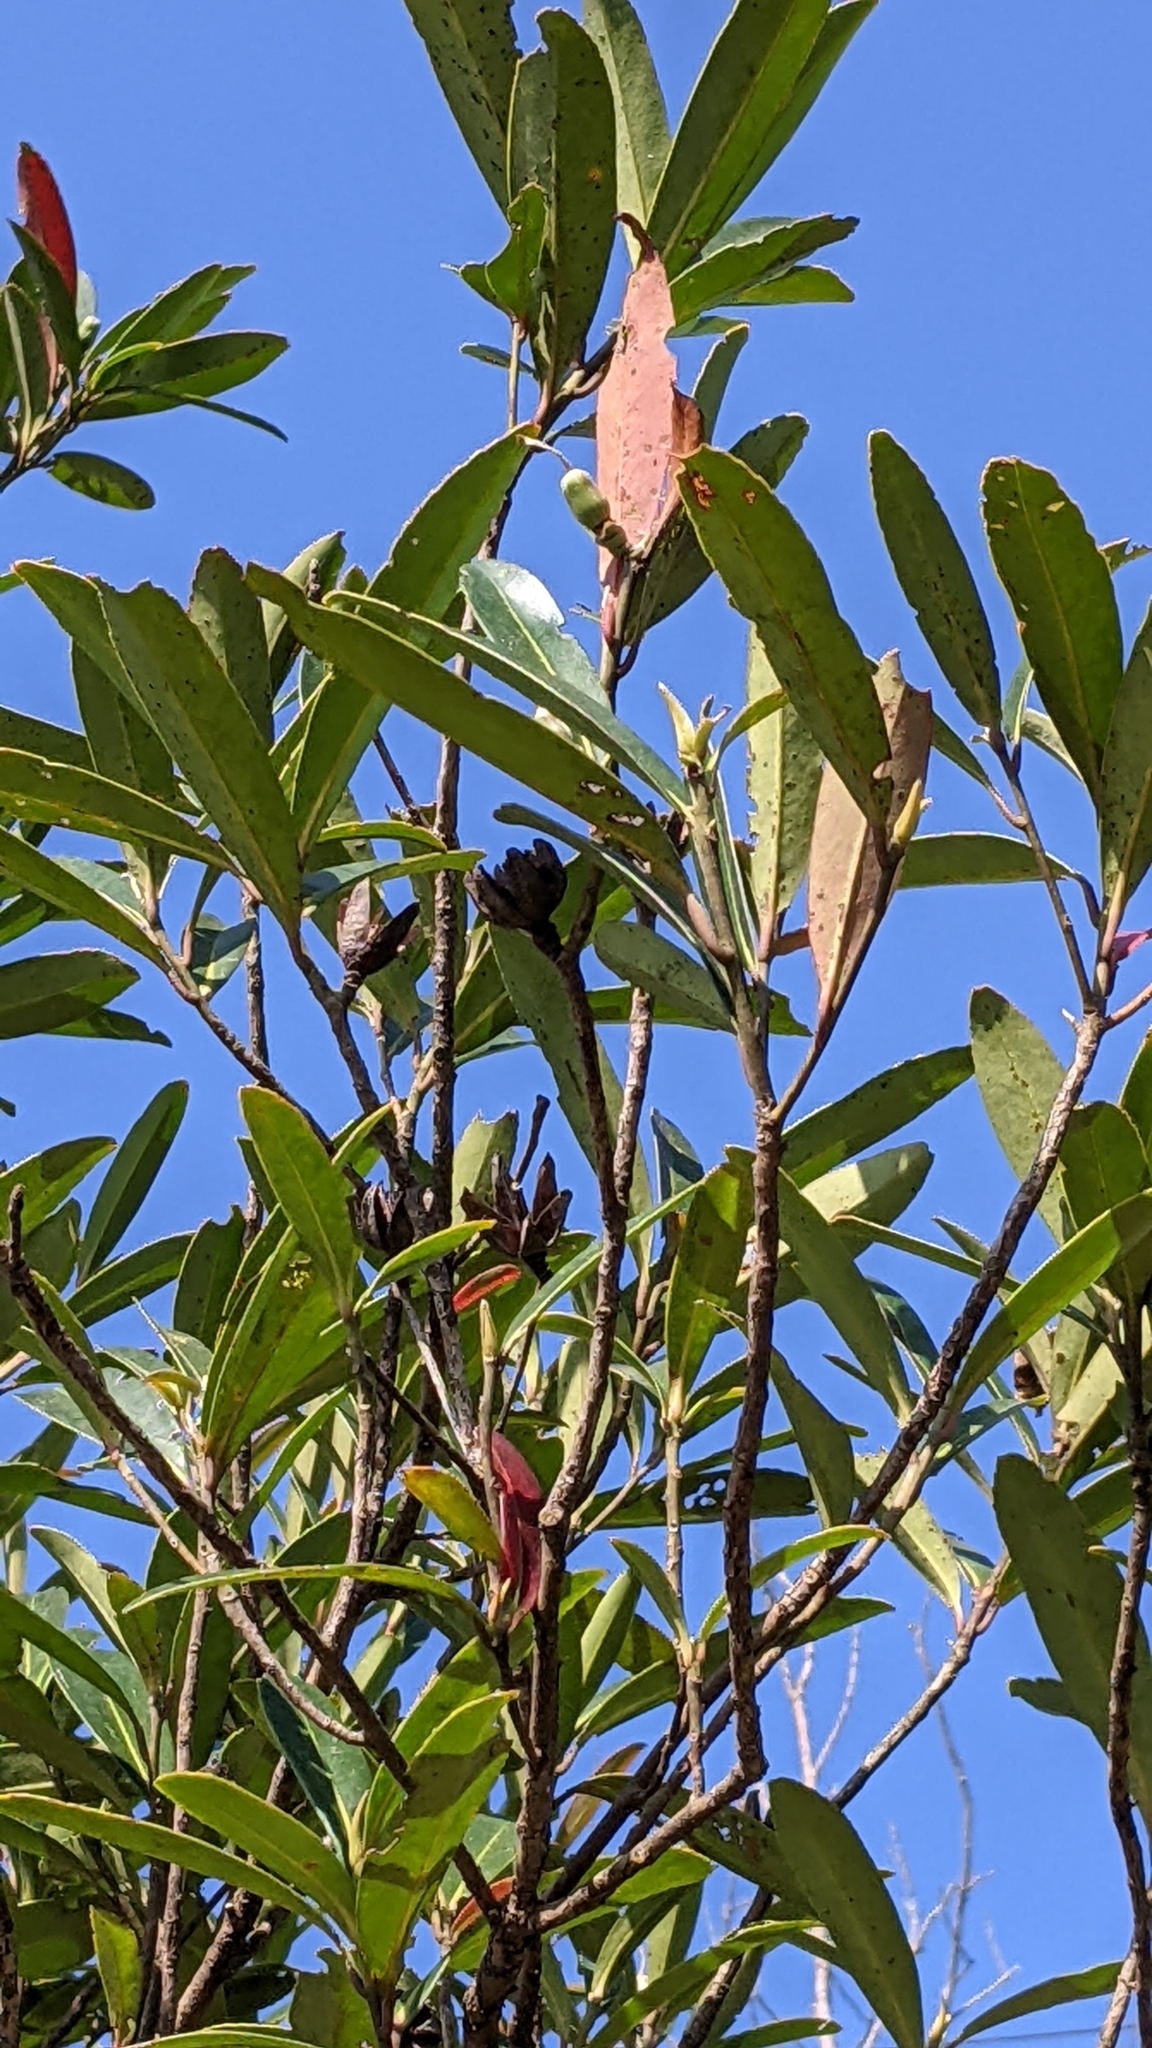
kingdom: Plantae
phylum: Tracheophyta
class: Magnoliopsida
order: Ericales
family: Theaceae
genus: Polyspora
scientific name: Polyspora axillaris
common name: Fried egg tree
